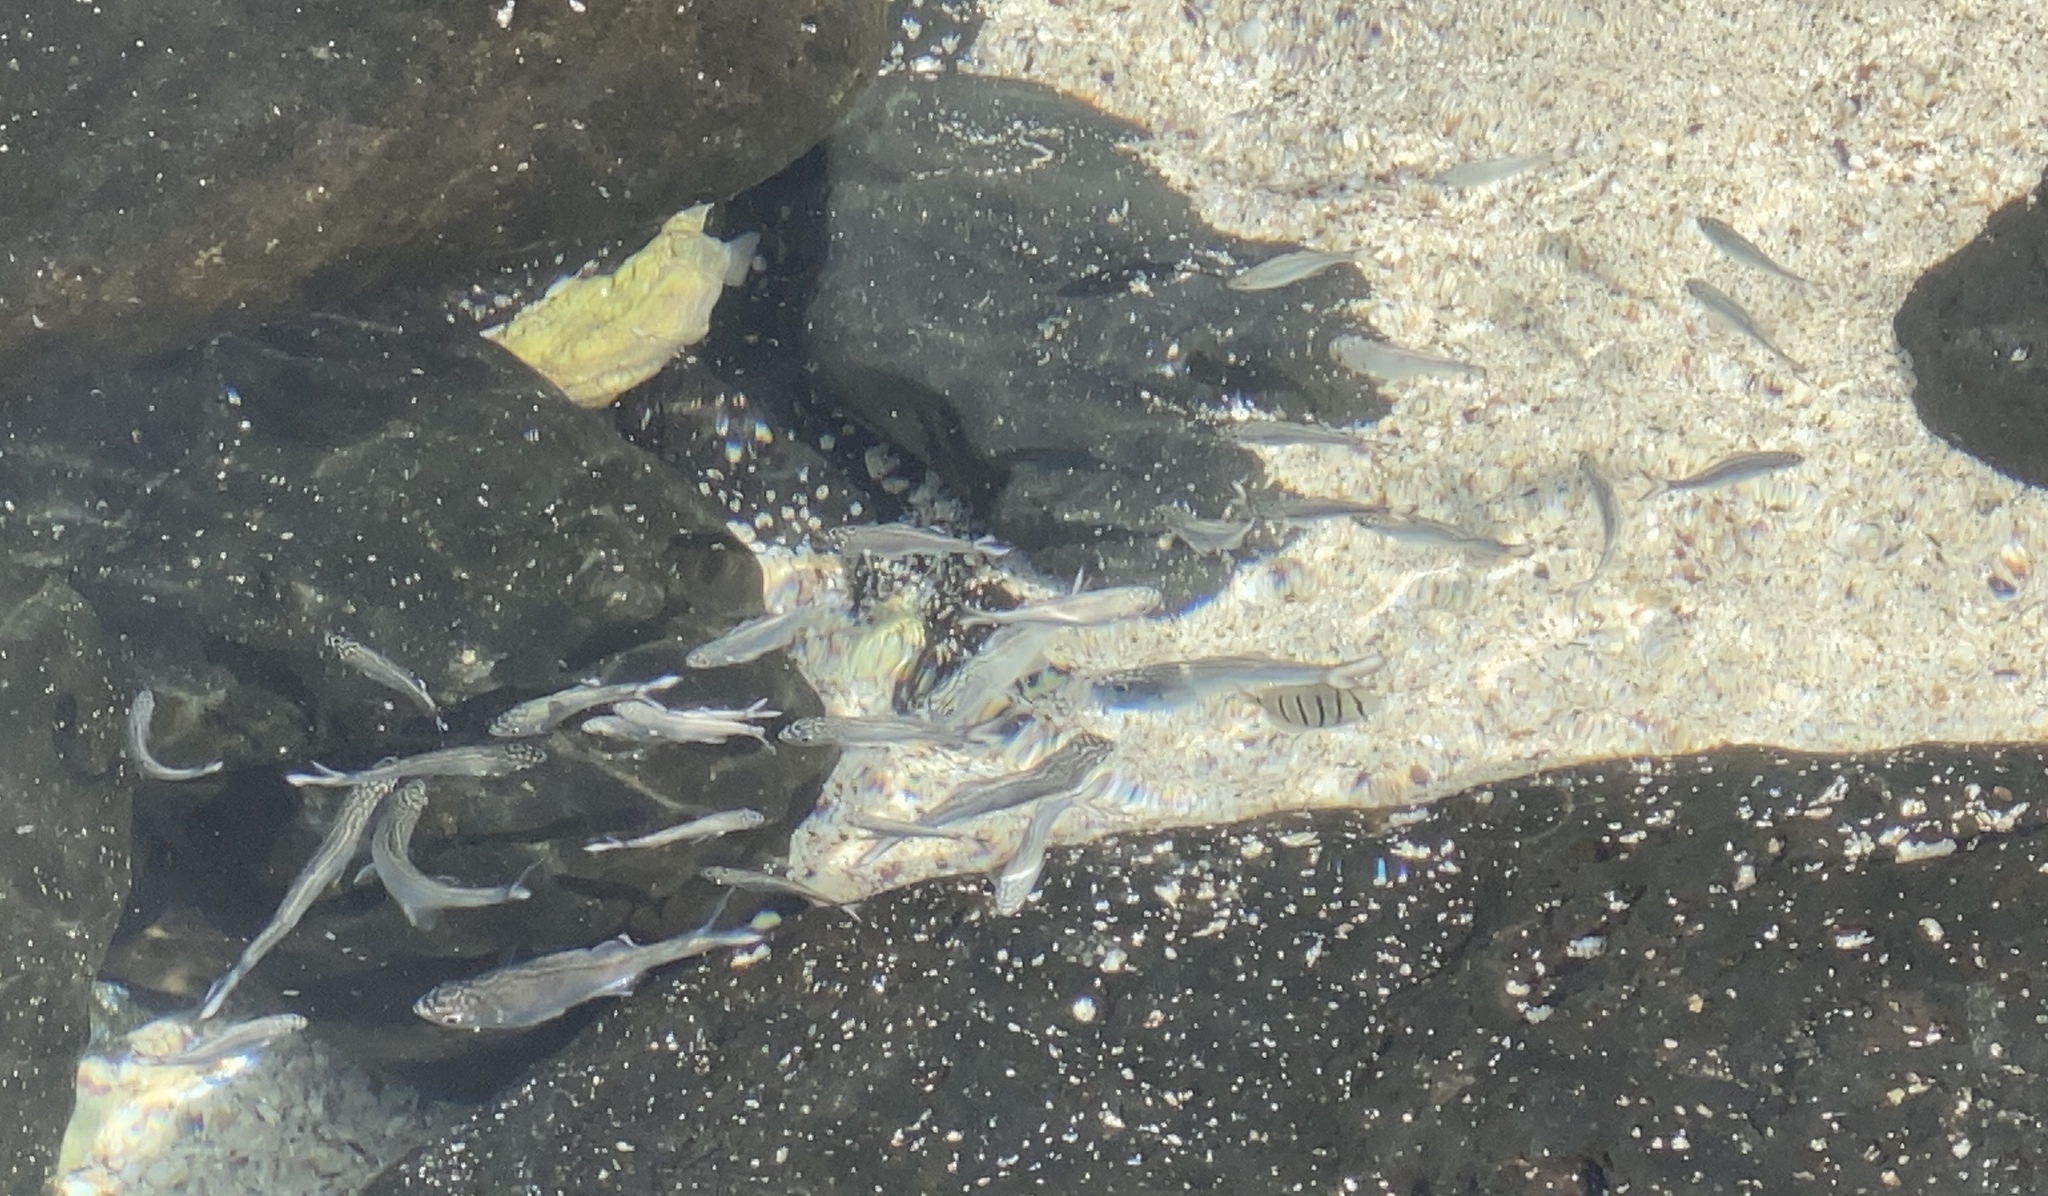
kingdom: Animalia
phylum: Chordata
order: Perciformes
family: Kuhliidae
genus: Kuhlia
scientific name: Kuhlia sandvicensis
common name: Hawaiian flagtail
